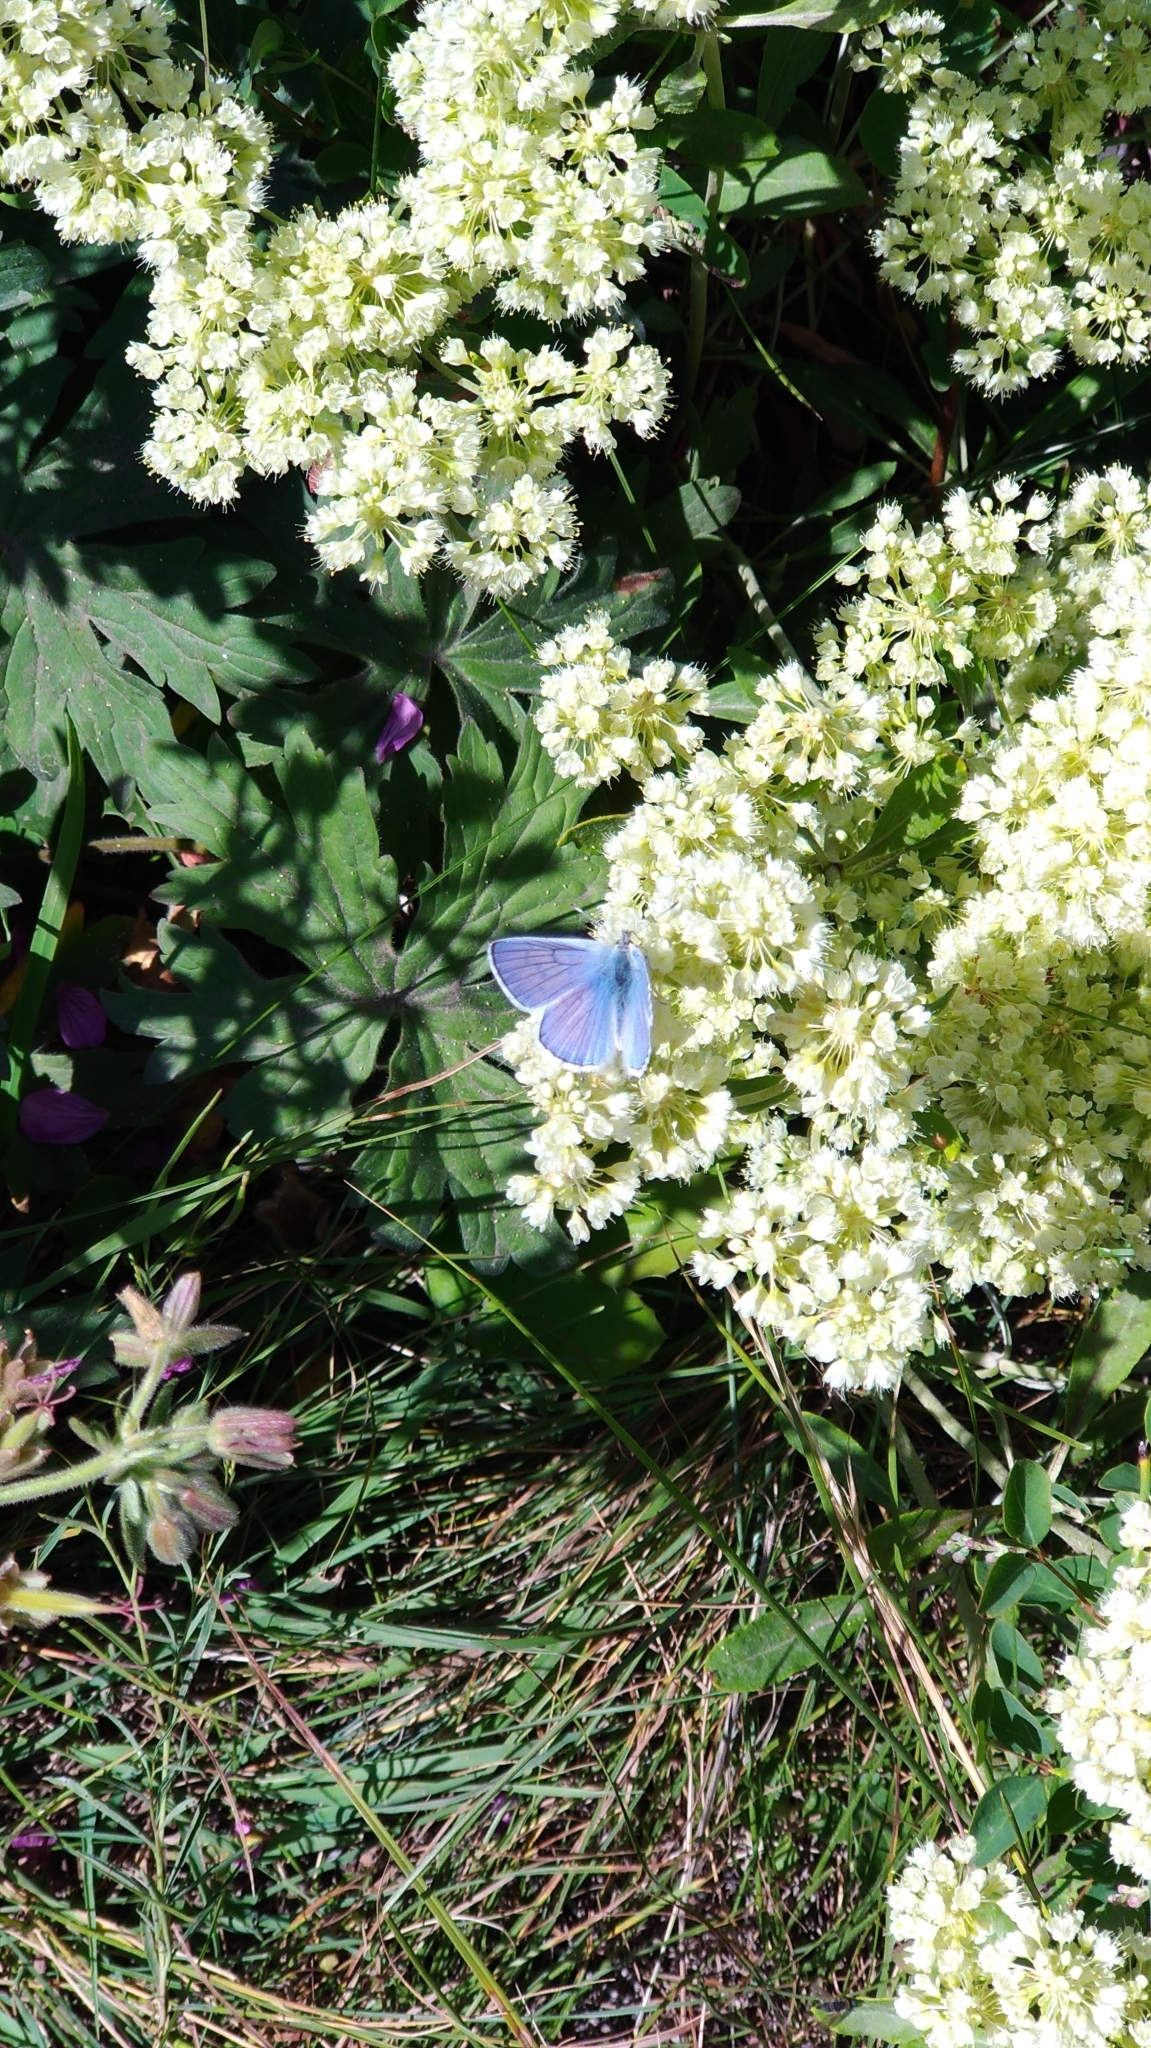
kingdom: Animalia
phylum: Arthropoda
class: Insecta
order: Lepidoptera
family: Lycaenidae
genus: Tharsalea
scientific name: Tharsalea heteronea
